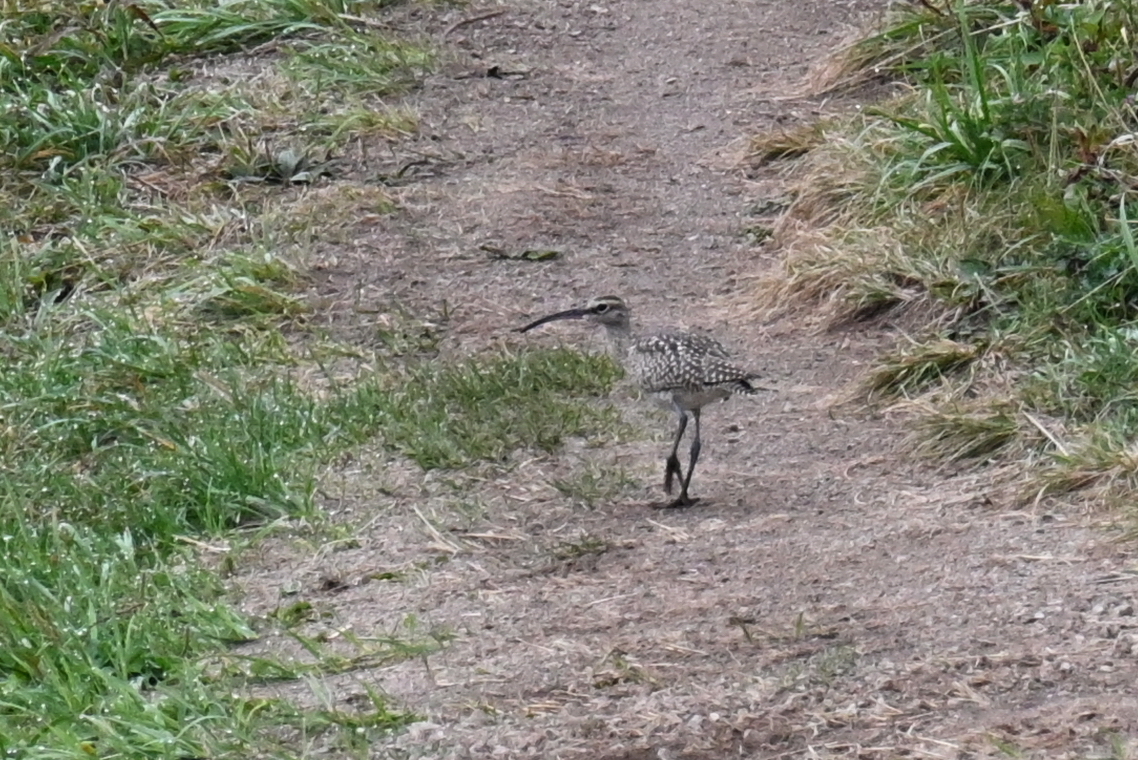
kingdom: Animalia
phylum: Chordata
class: Aves
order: Charadriiformes
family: Scolopacidae
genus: Numenius
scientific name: Numenius phaeopus
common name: Whimbrel
